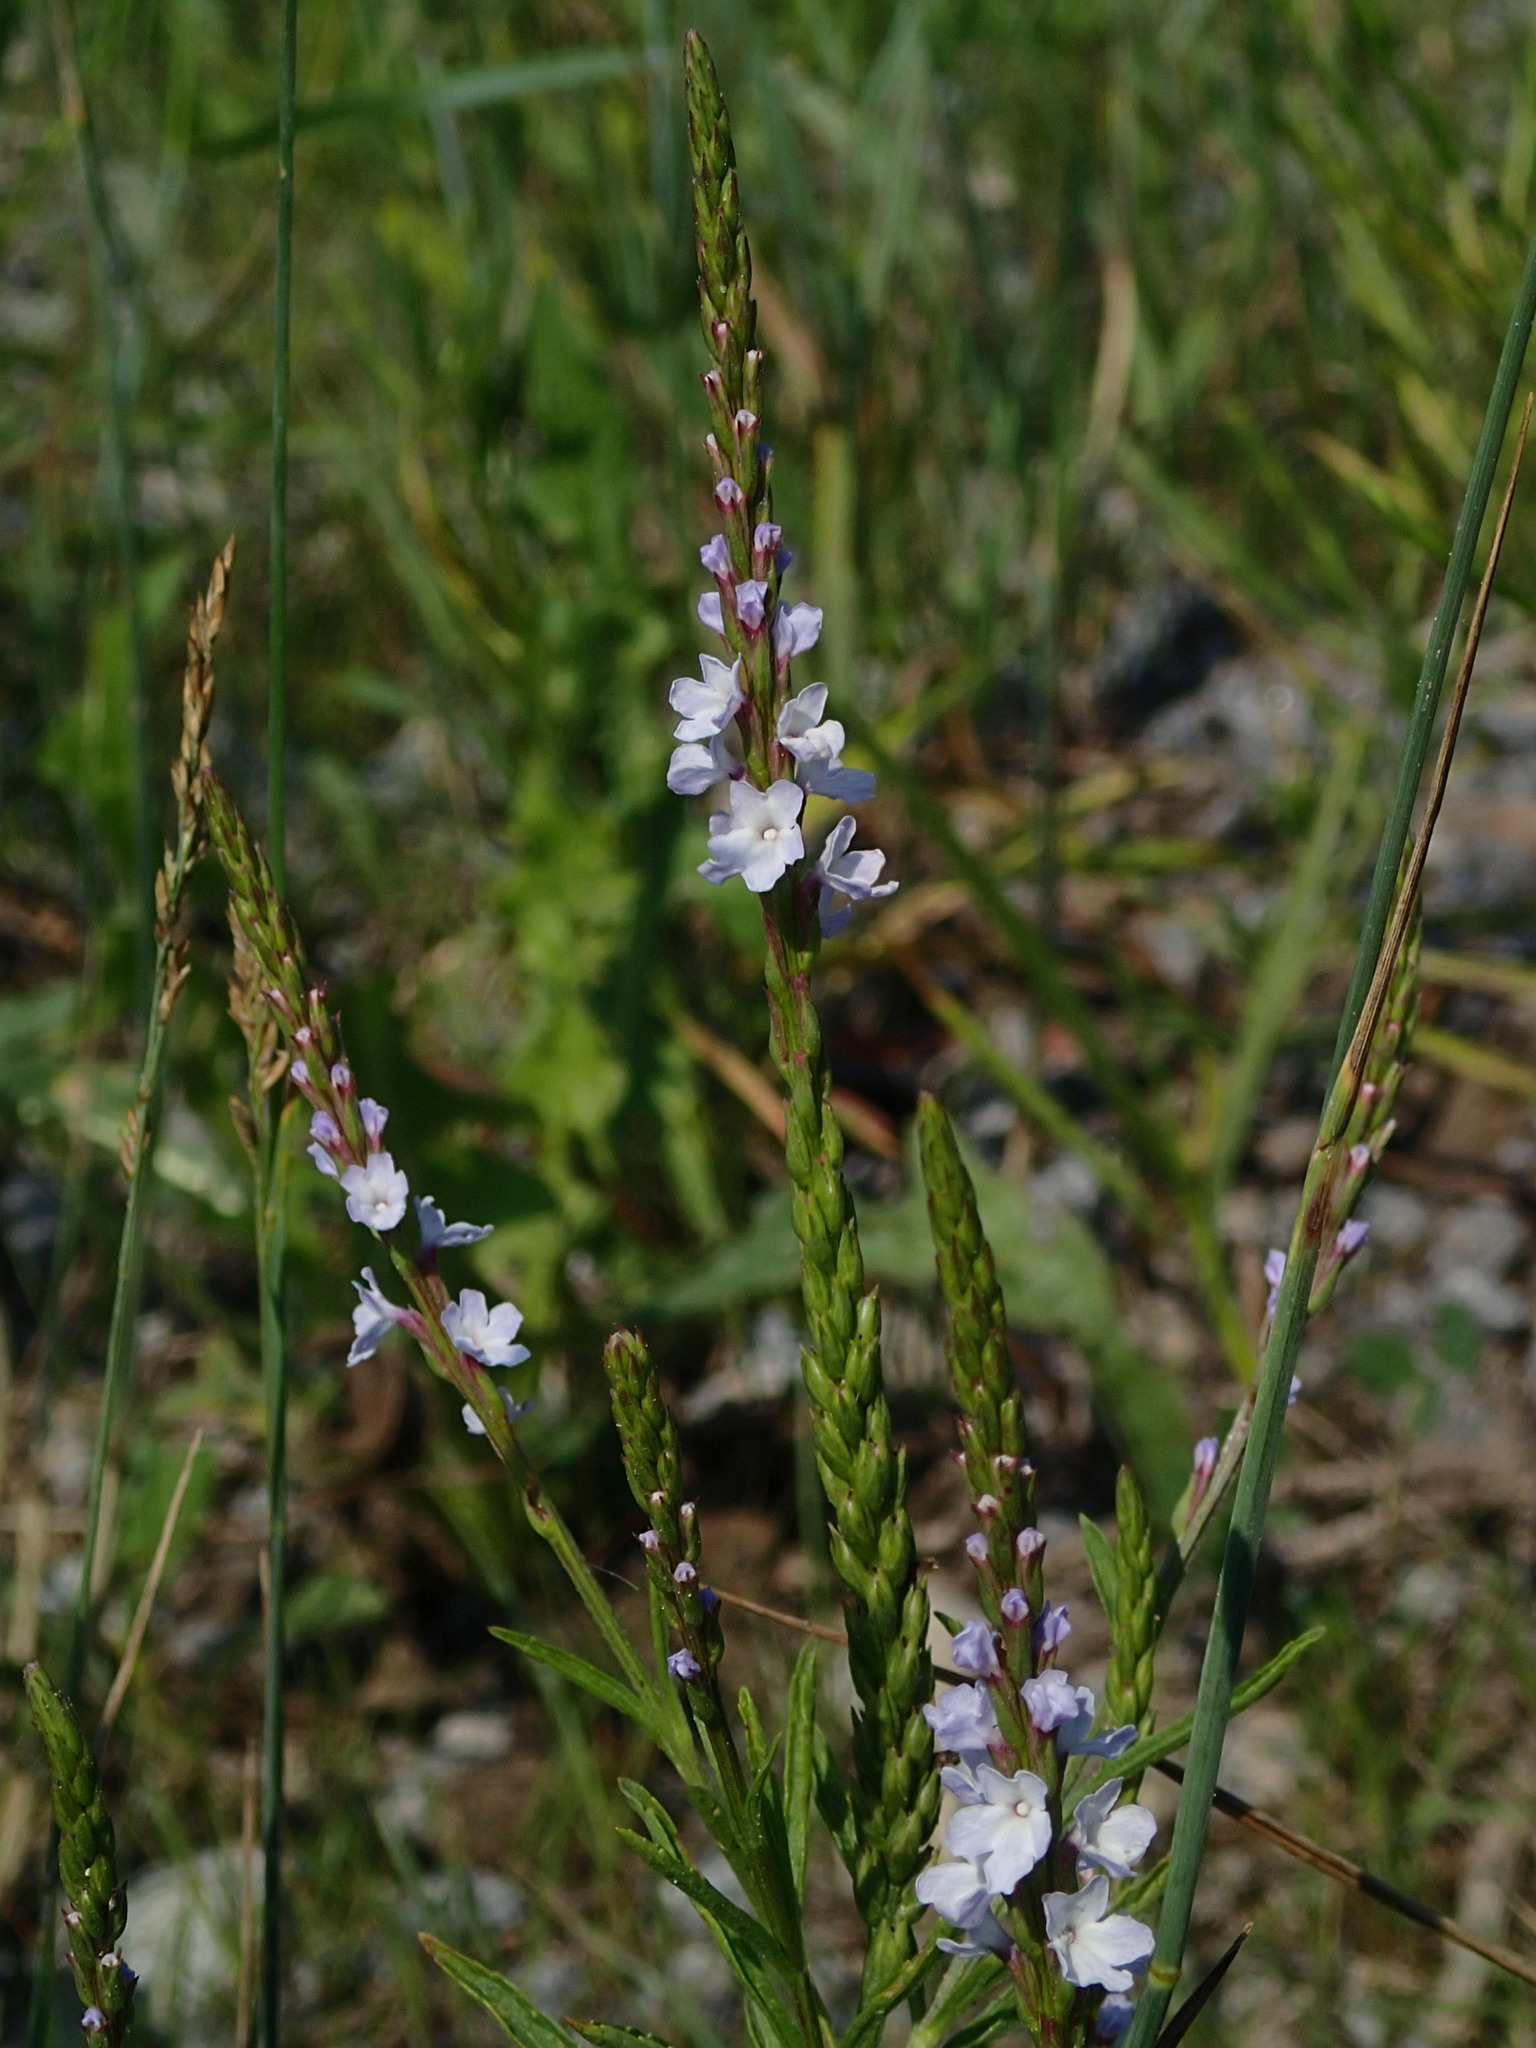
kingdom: Plantae
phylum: Tracheophyta
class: Magnoliopsida
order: Lamiales
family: Verbenaceae
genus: Verbena
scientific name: Verbena simplex
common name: Narrow-leaf vervain
